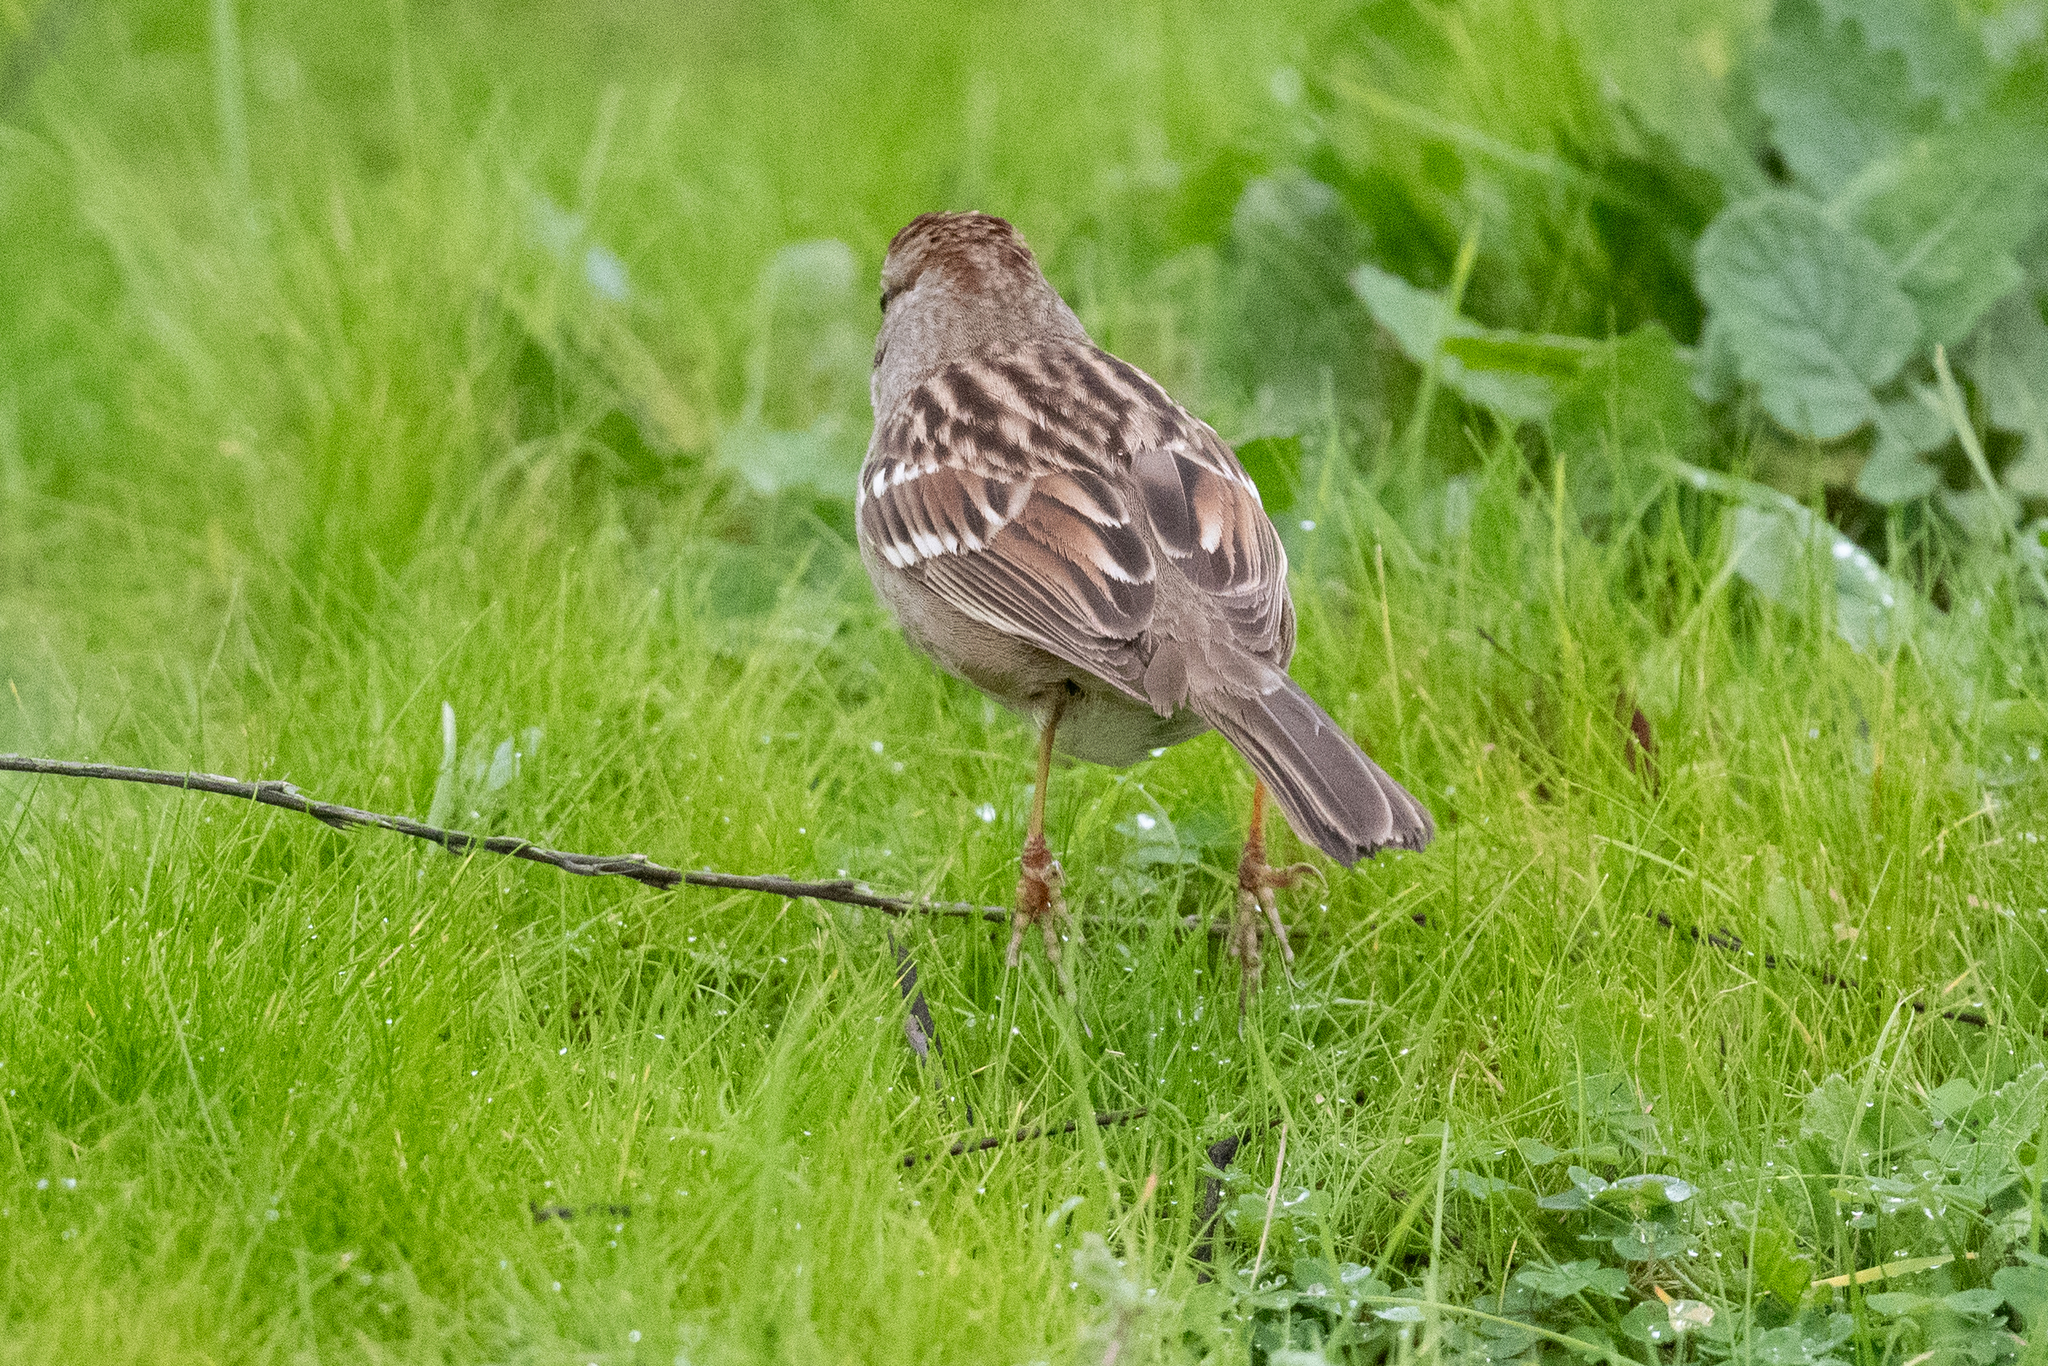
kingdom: Animalia
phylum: Chordata
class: Aves
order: Passeriformes
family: Passerellidae
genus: Zonotrichia
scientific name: Zonotrichia leucophrys
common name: White-crowned sparrow
